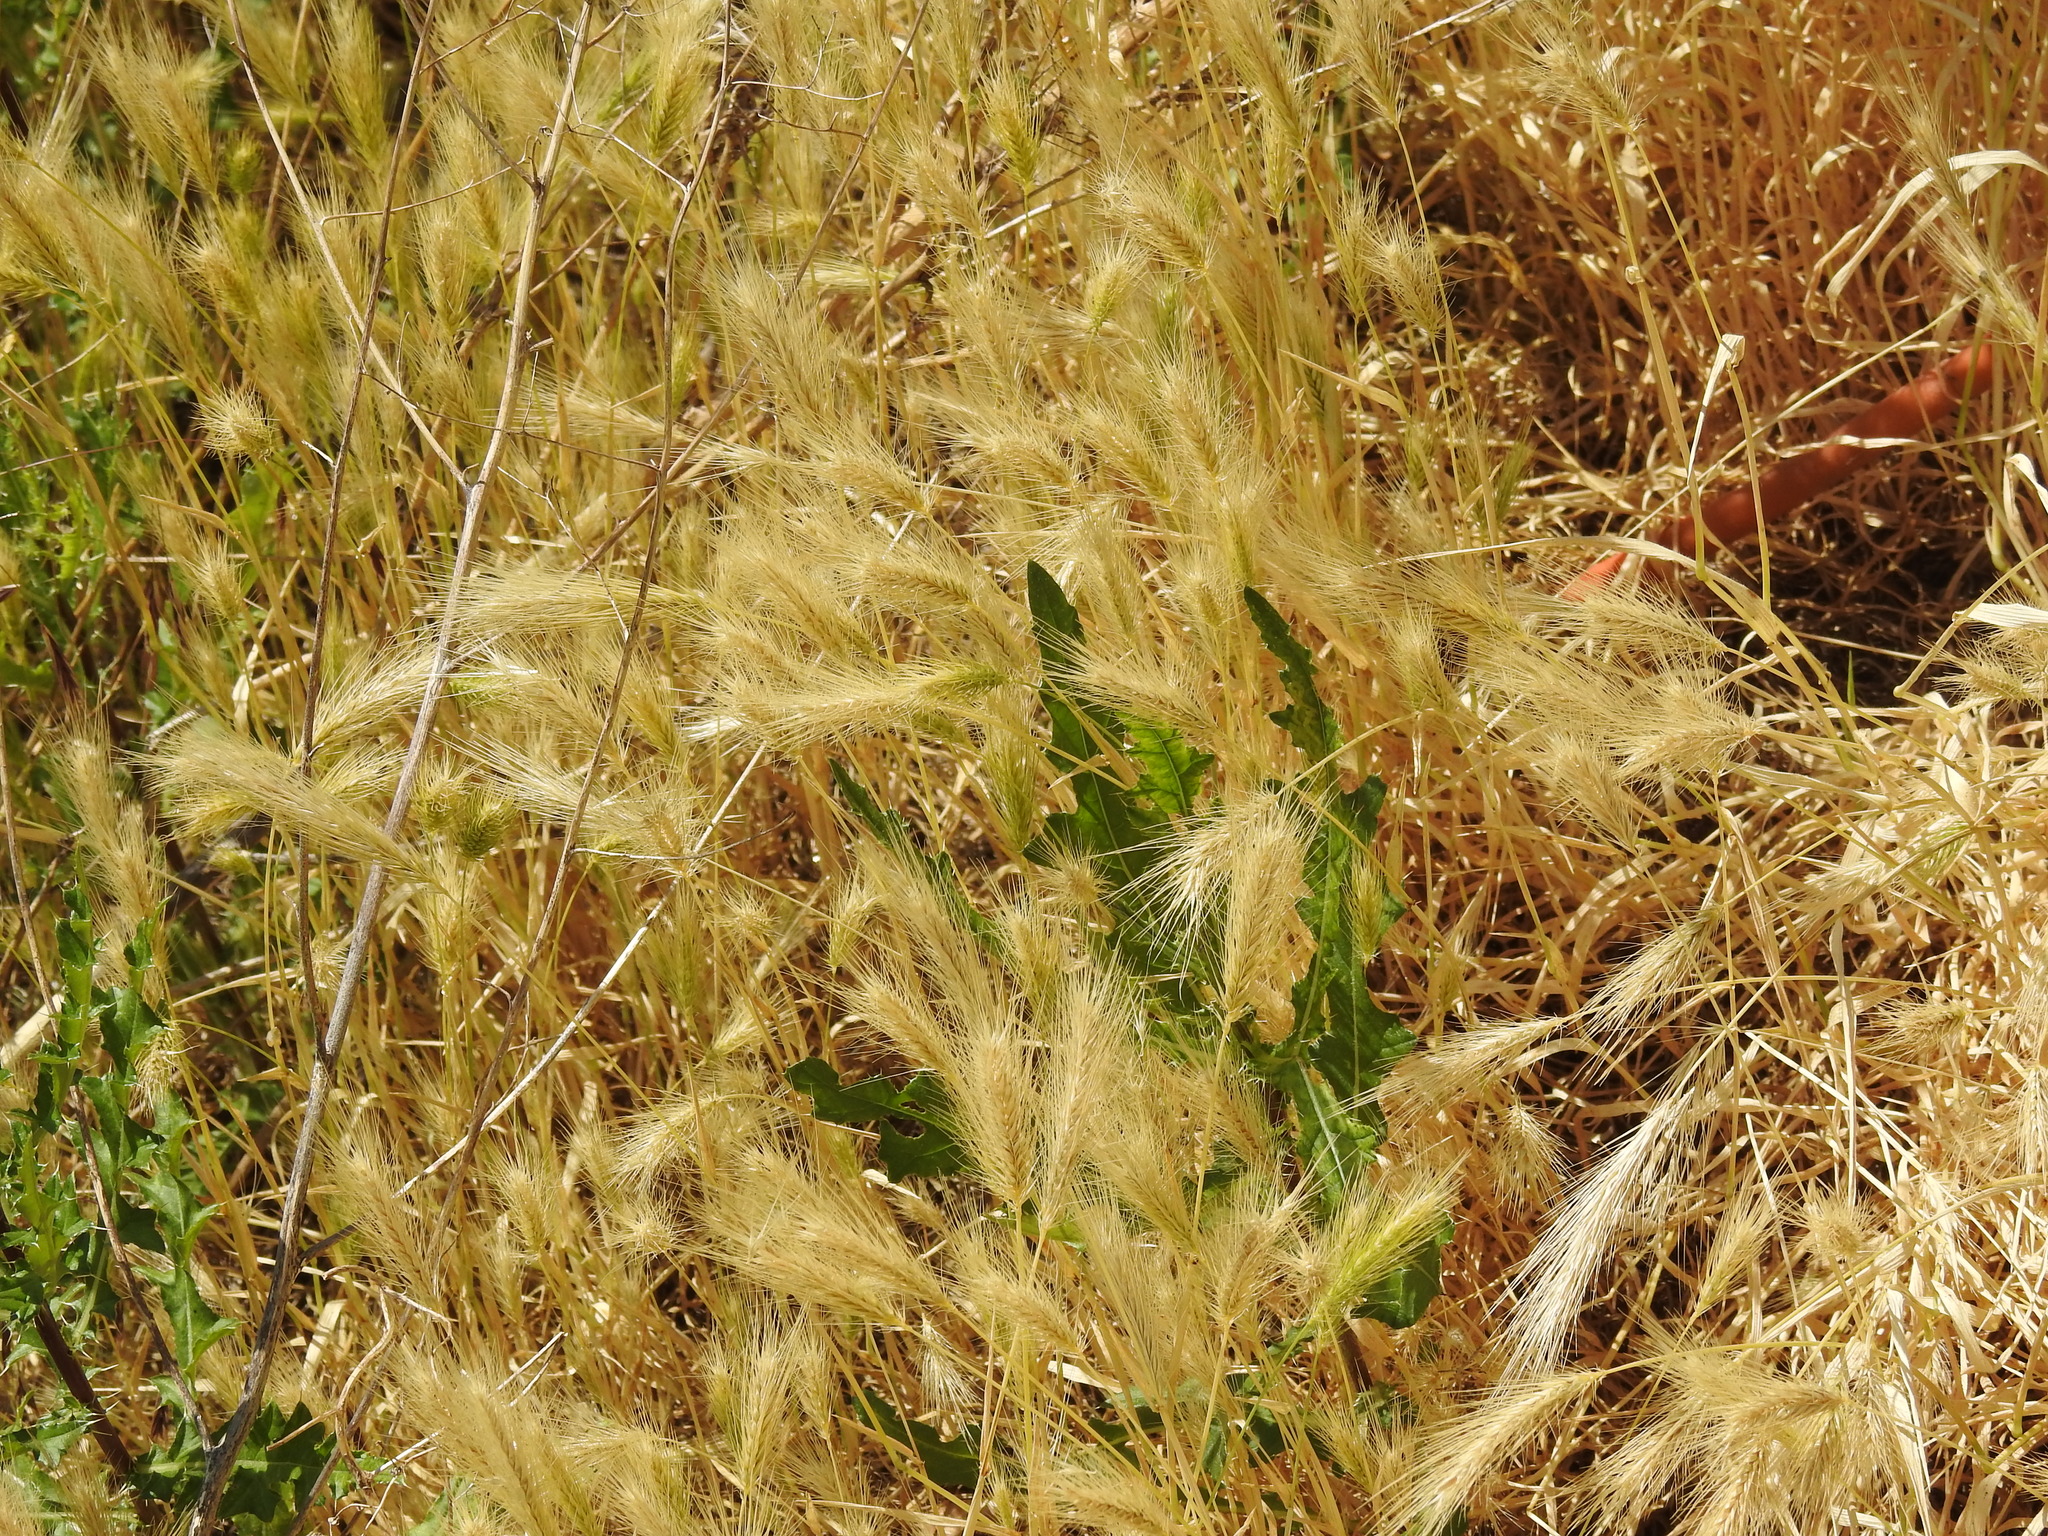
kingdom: Plantae
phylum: Tracheophyta
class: Liliopsida
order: Poales
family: Poaceae
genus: Hordeum
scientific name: Hordeum murinum
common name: Wall barley
